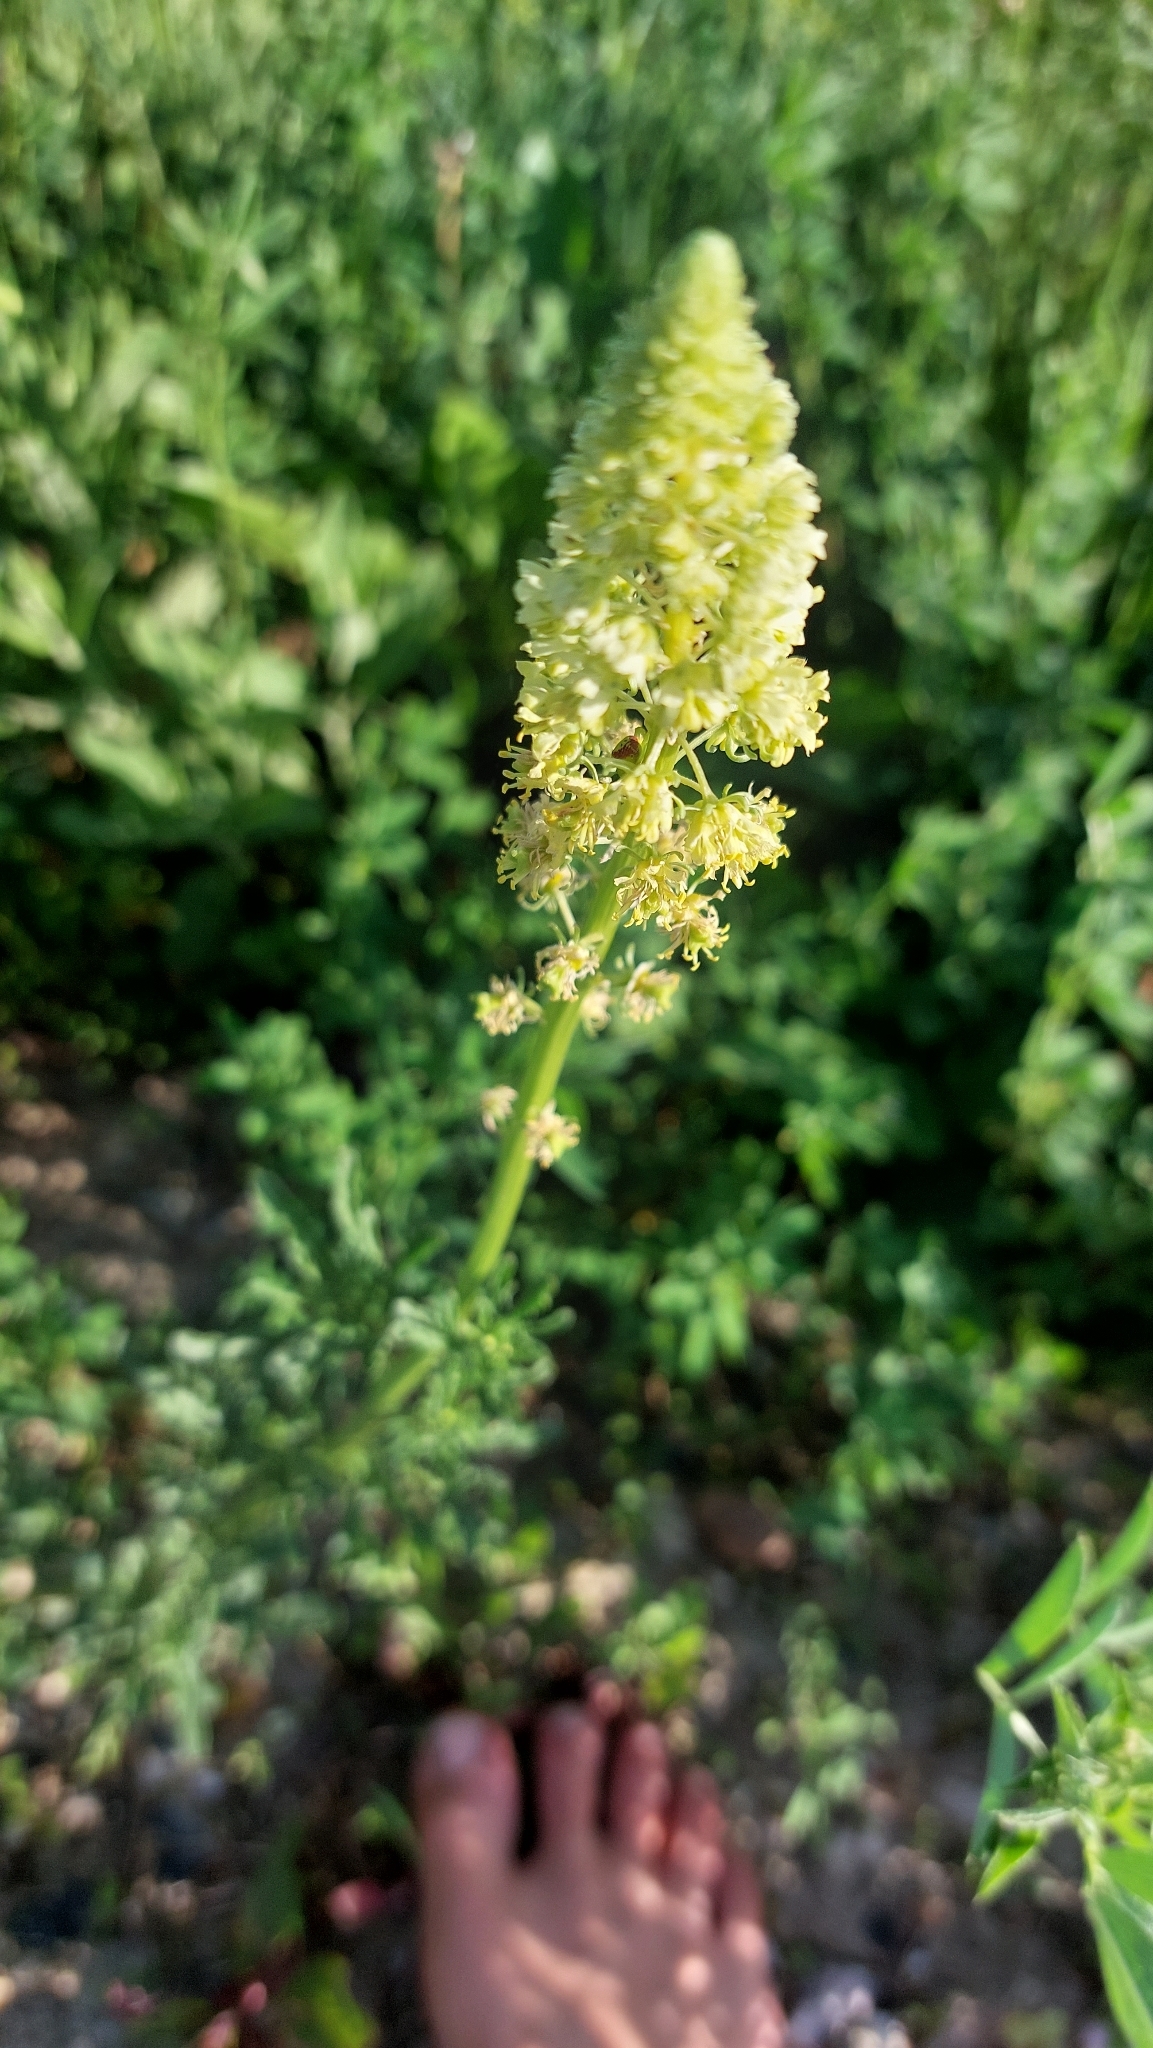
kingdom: Plantae
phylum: Tracheophyta
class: Magnoliopsida
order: Brassicales
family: Resedaceae
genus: Reseda
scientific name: Reseda lutea
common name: Wild mignonette
